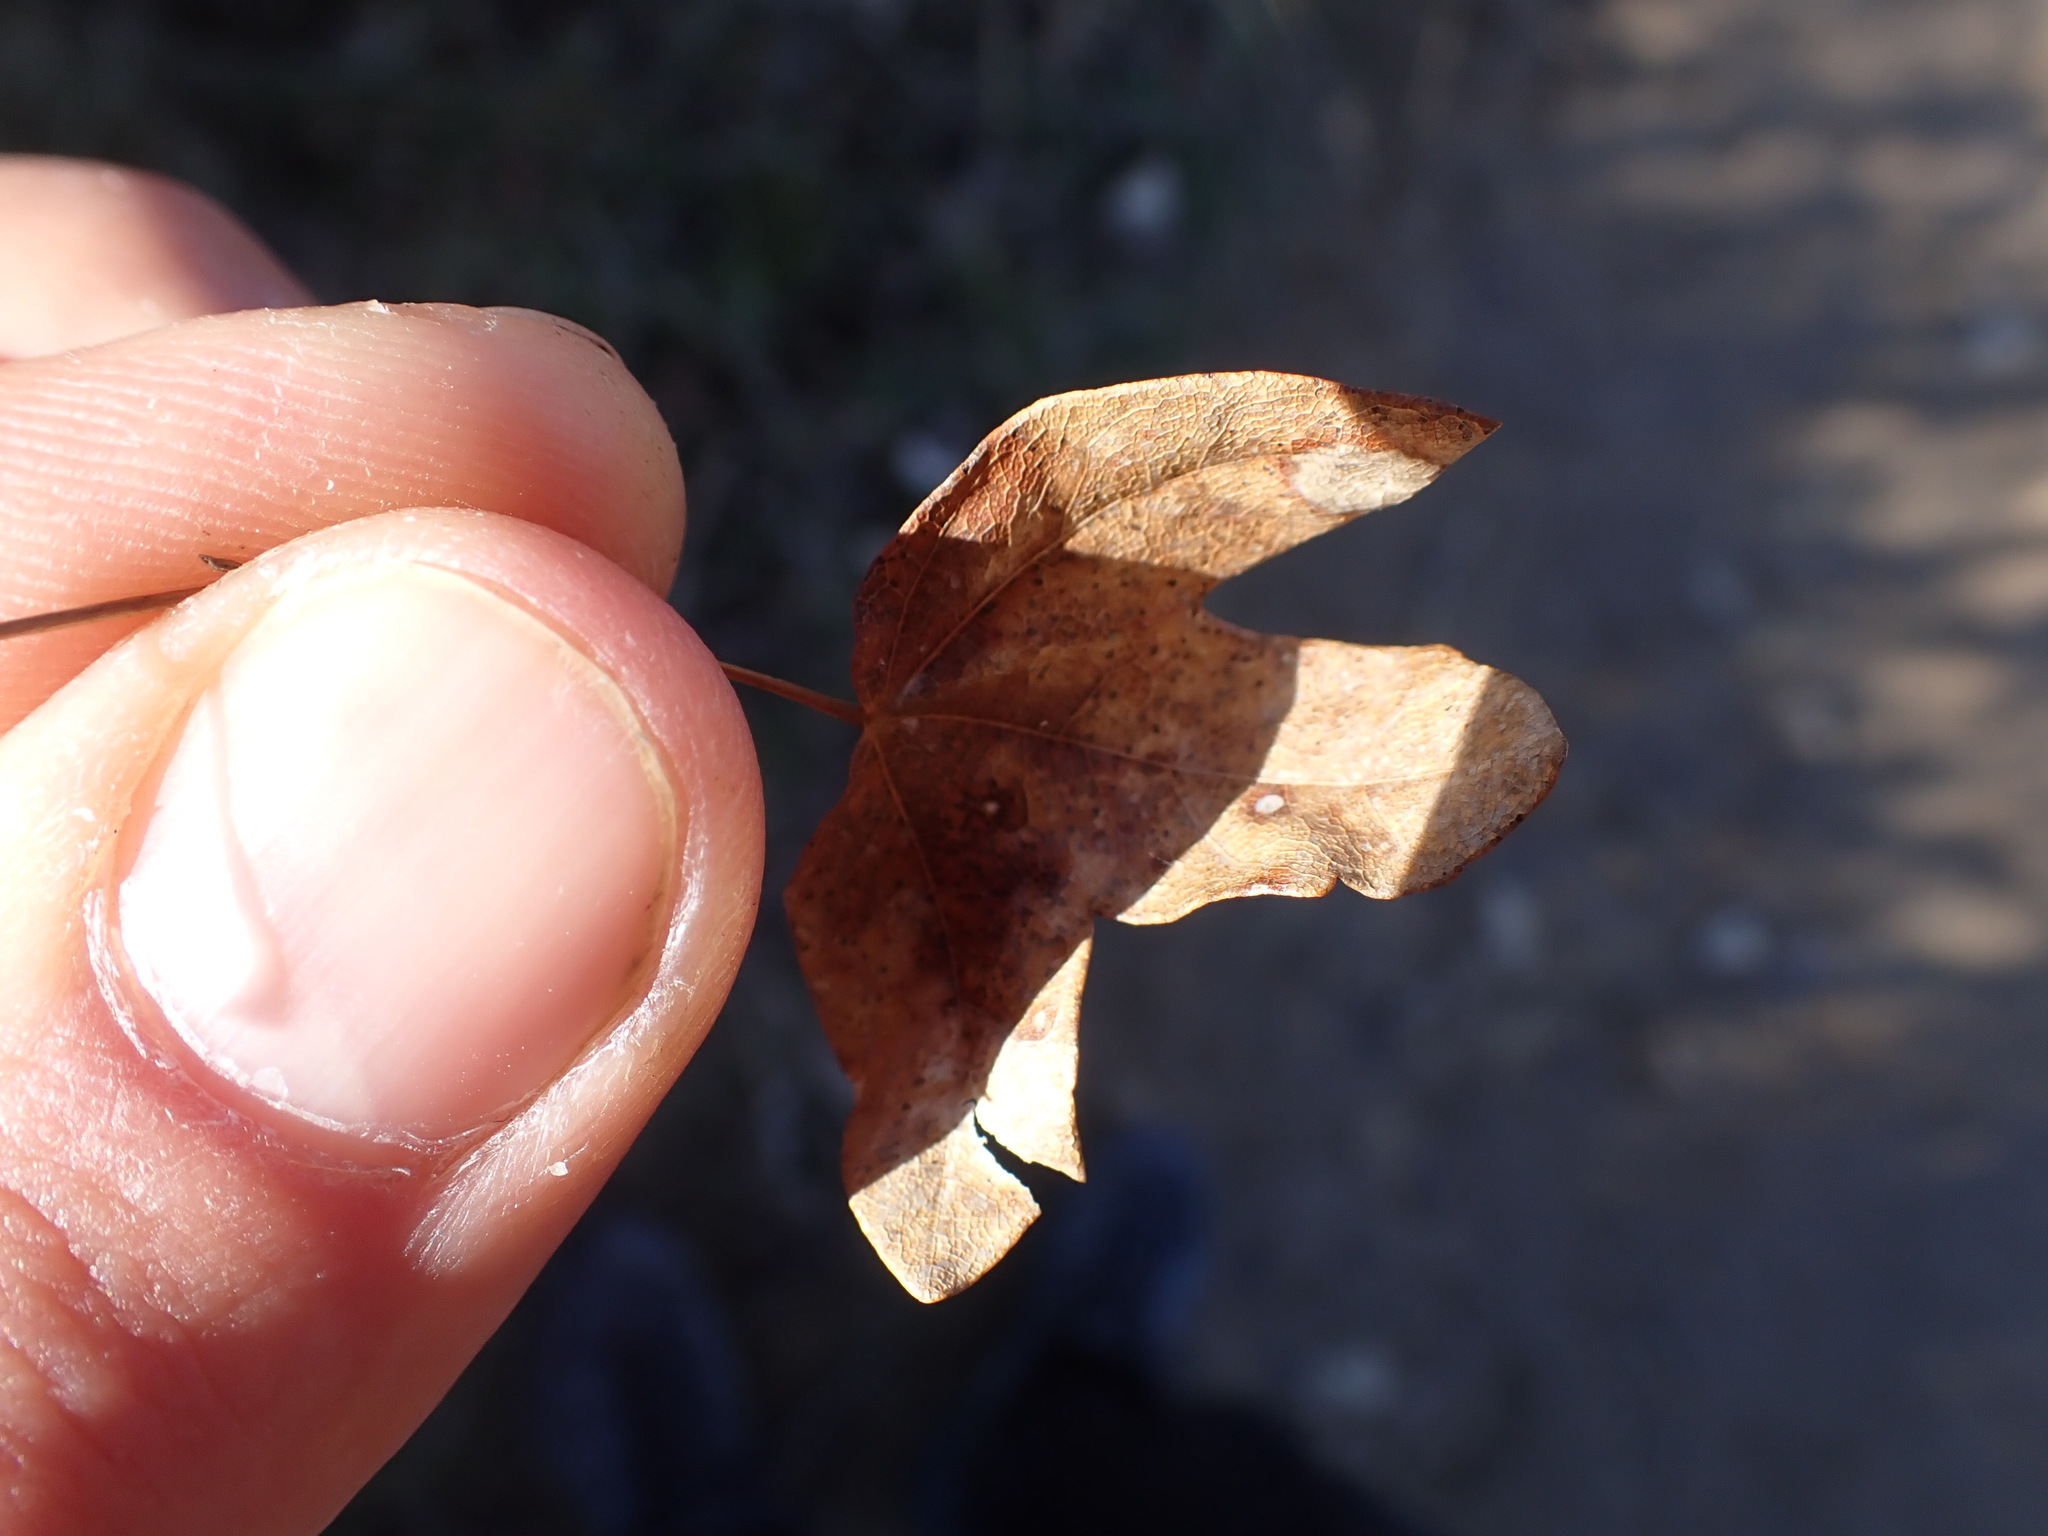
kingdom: Plantae
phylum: Tracheophyta
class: Magnoliopsida
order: Sapindales
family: Sapindaceae
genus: Acer
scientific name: Acer monspessulanum
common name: Montpellier maple
